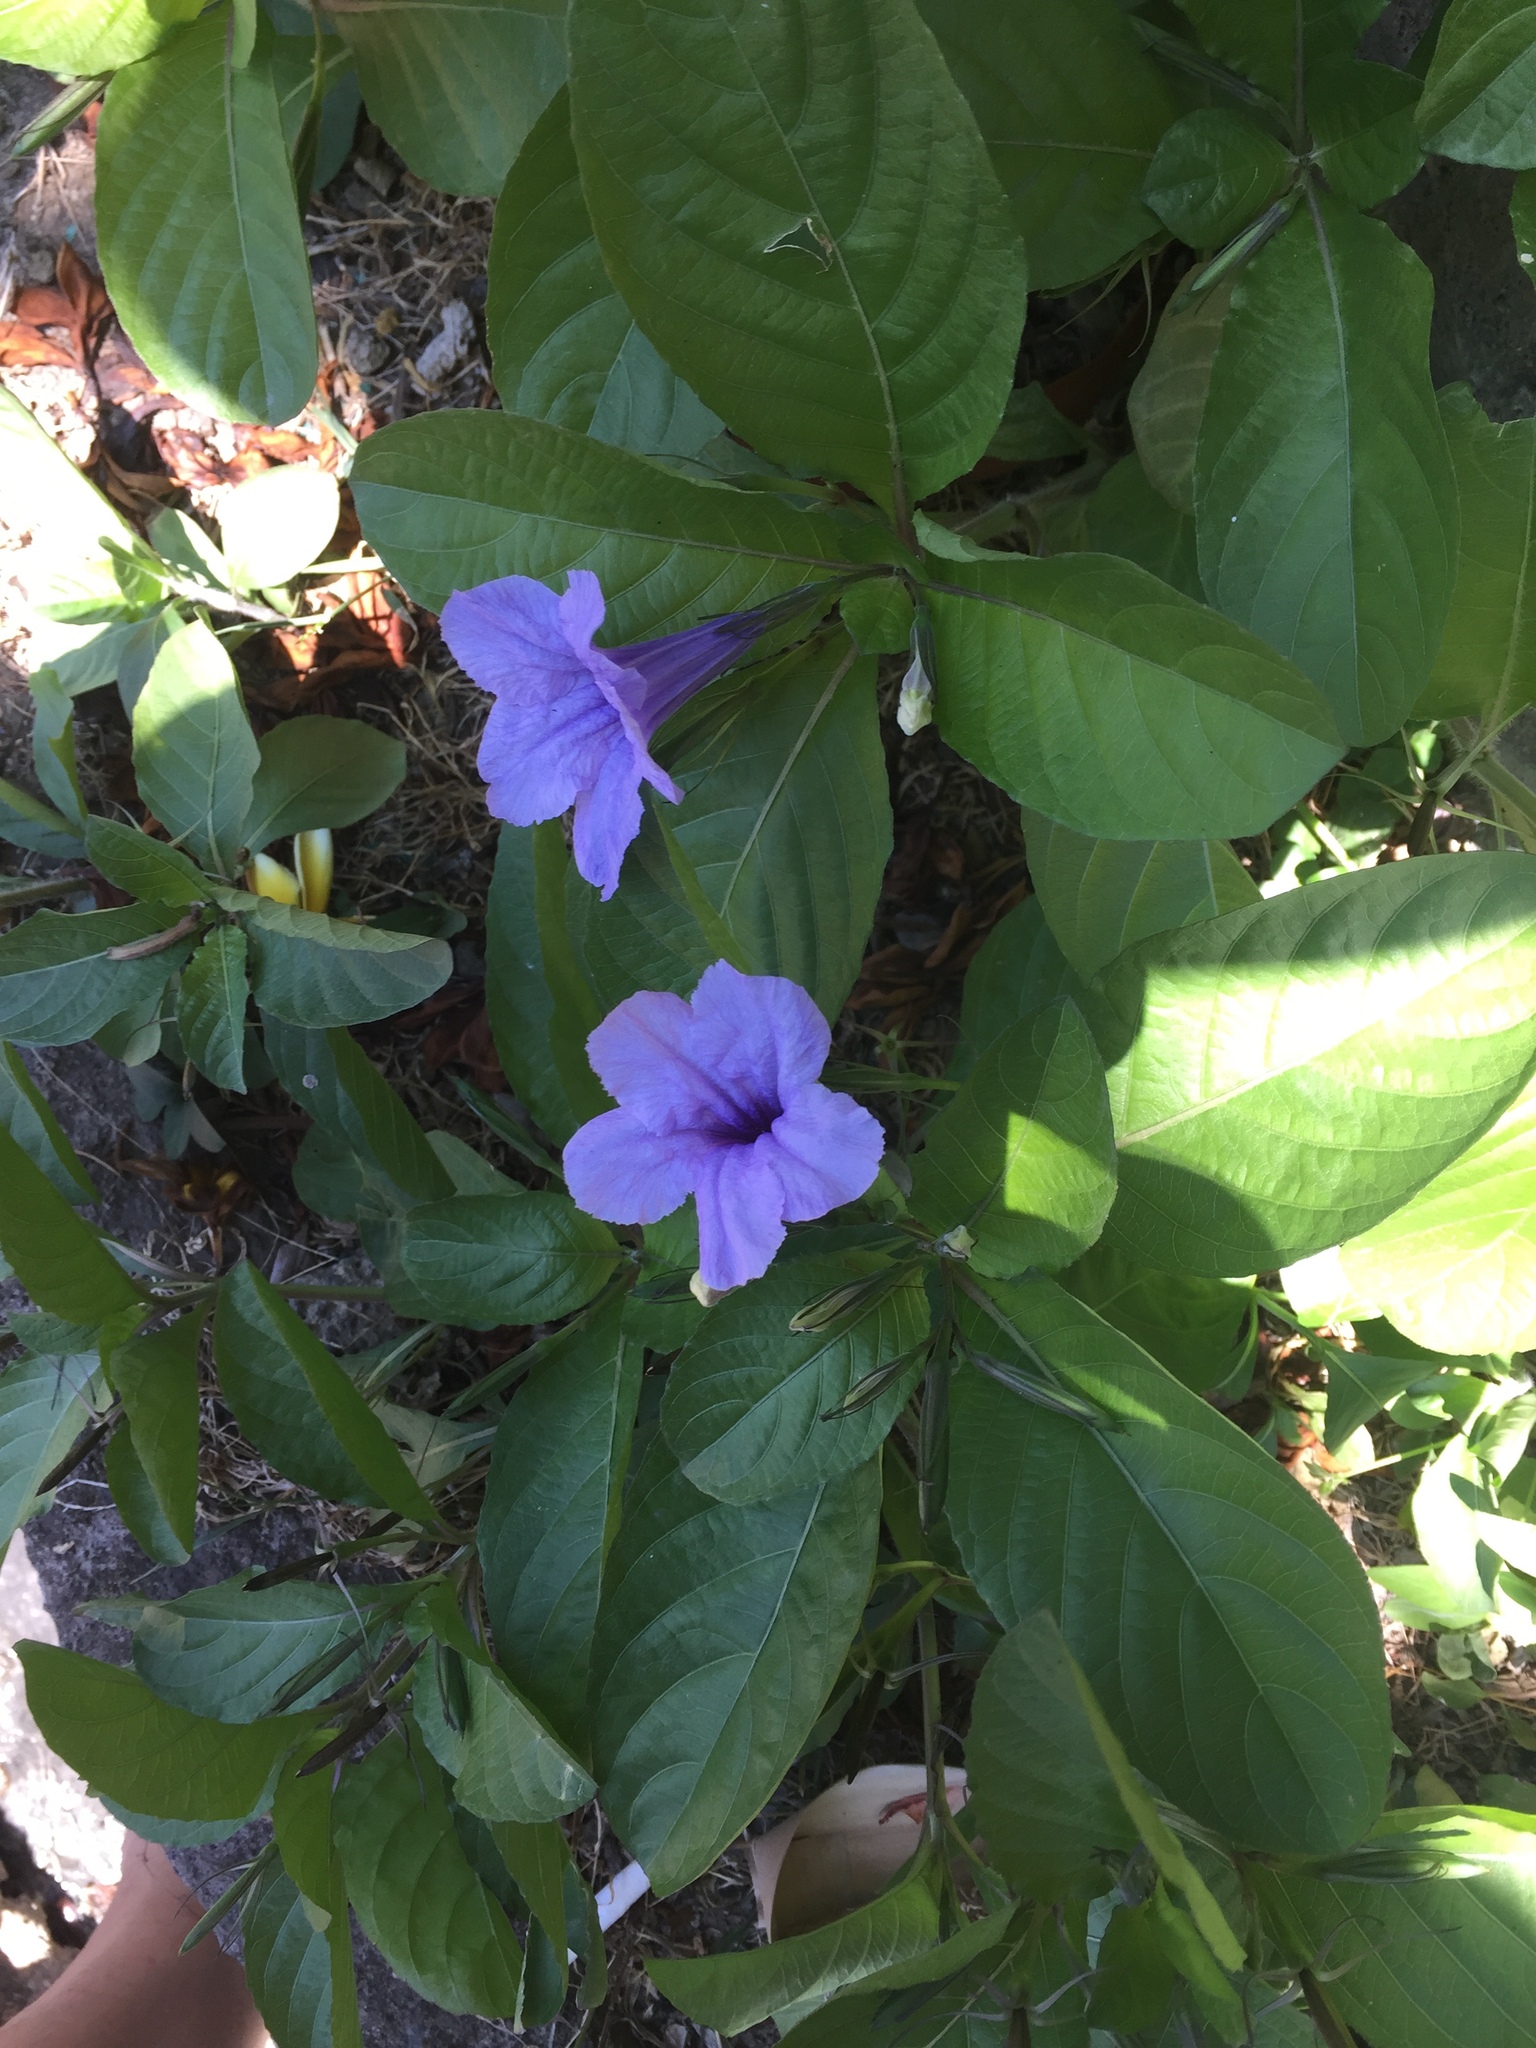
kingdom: Plantae
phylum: Tracheophyta
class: Magnoliopsida
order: Lamiales
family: Acanthaceae
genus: Ruellia
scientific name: Ruellia tuberosa
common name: Devil's bit
